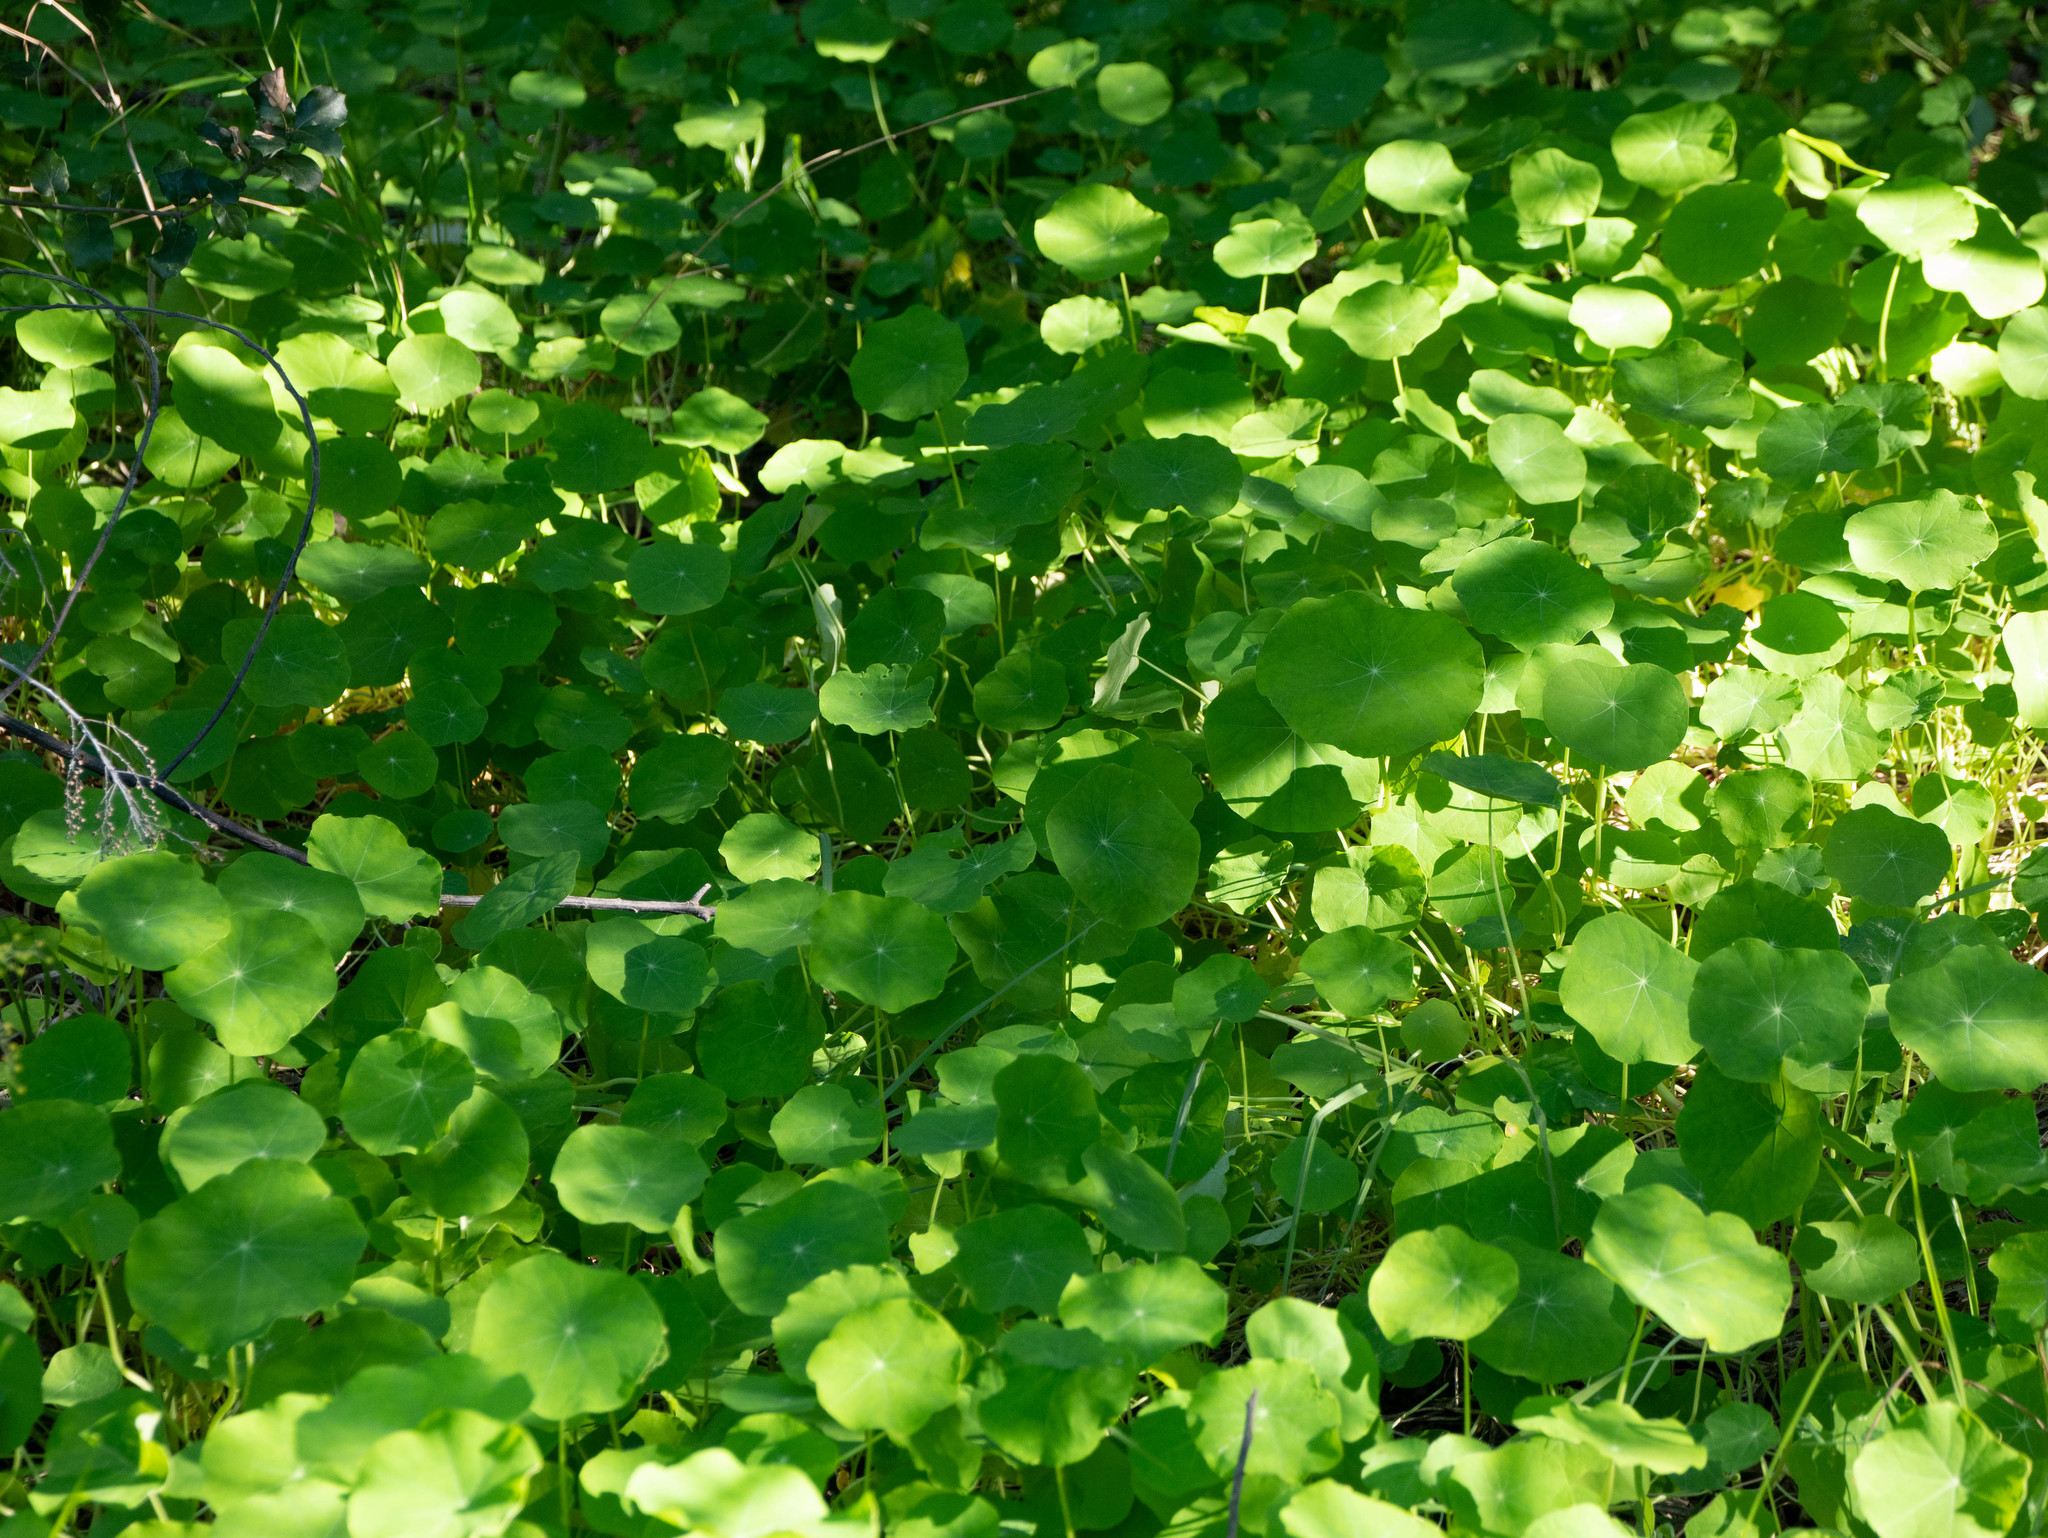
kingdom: Plantae
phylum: Tracheophyta
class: Magnoliopsida
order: Brassicales
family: Tropaeolaceae
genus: Tropaeolum
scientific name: Tropaeolum majus
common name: Nasturtium
